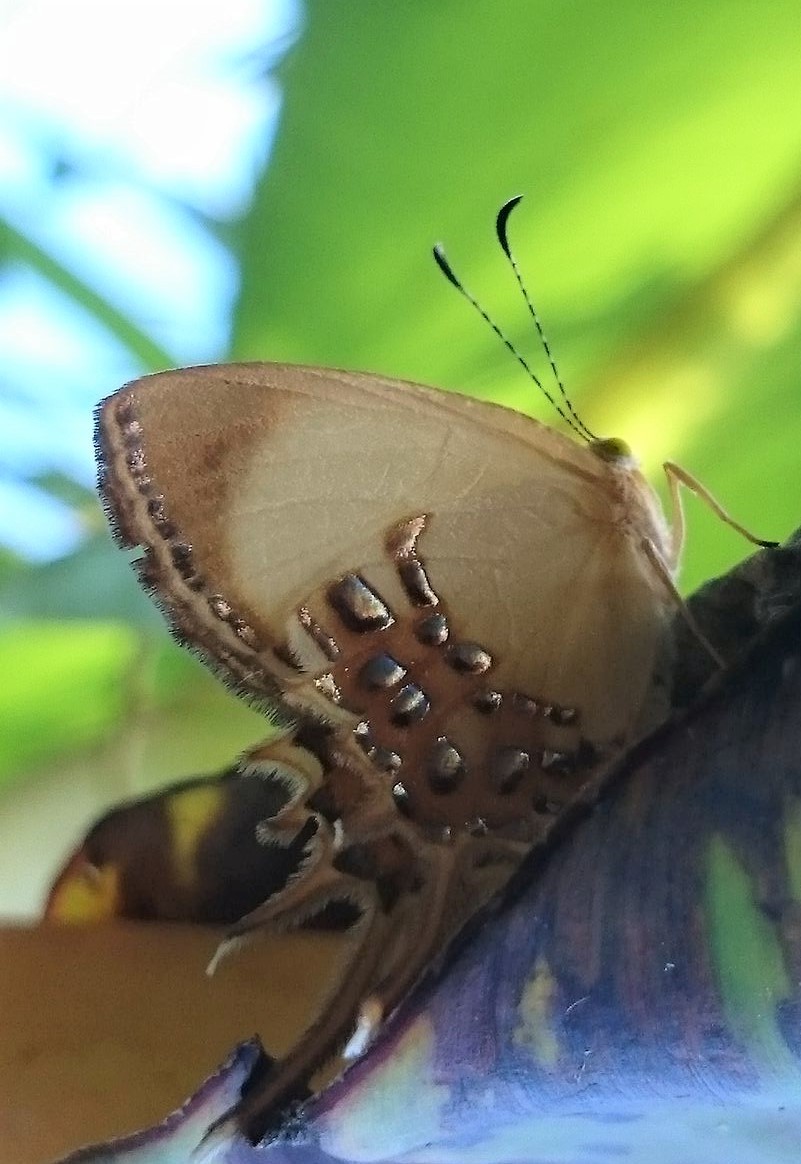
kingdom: Animalia
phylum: Arthropoda
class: Insecta
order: Lepidoptera
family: Riodinidae
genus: Helicopis
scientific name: Helicopis cupido
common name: Spangled cupid
